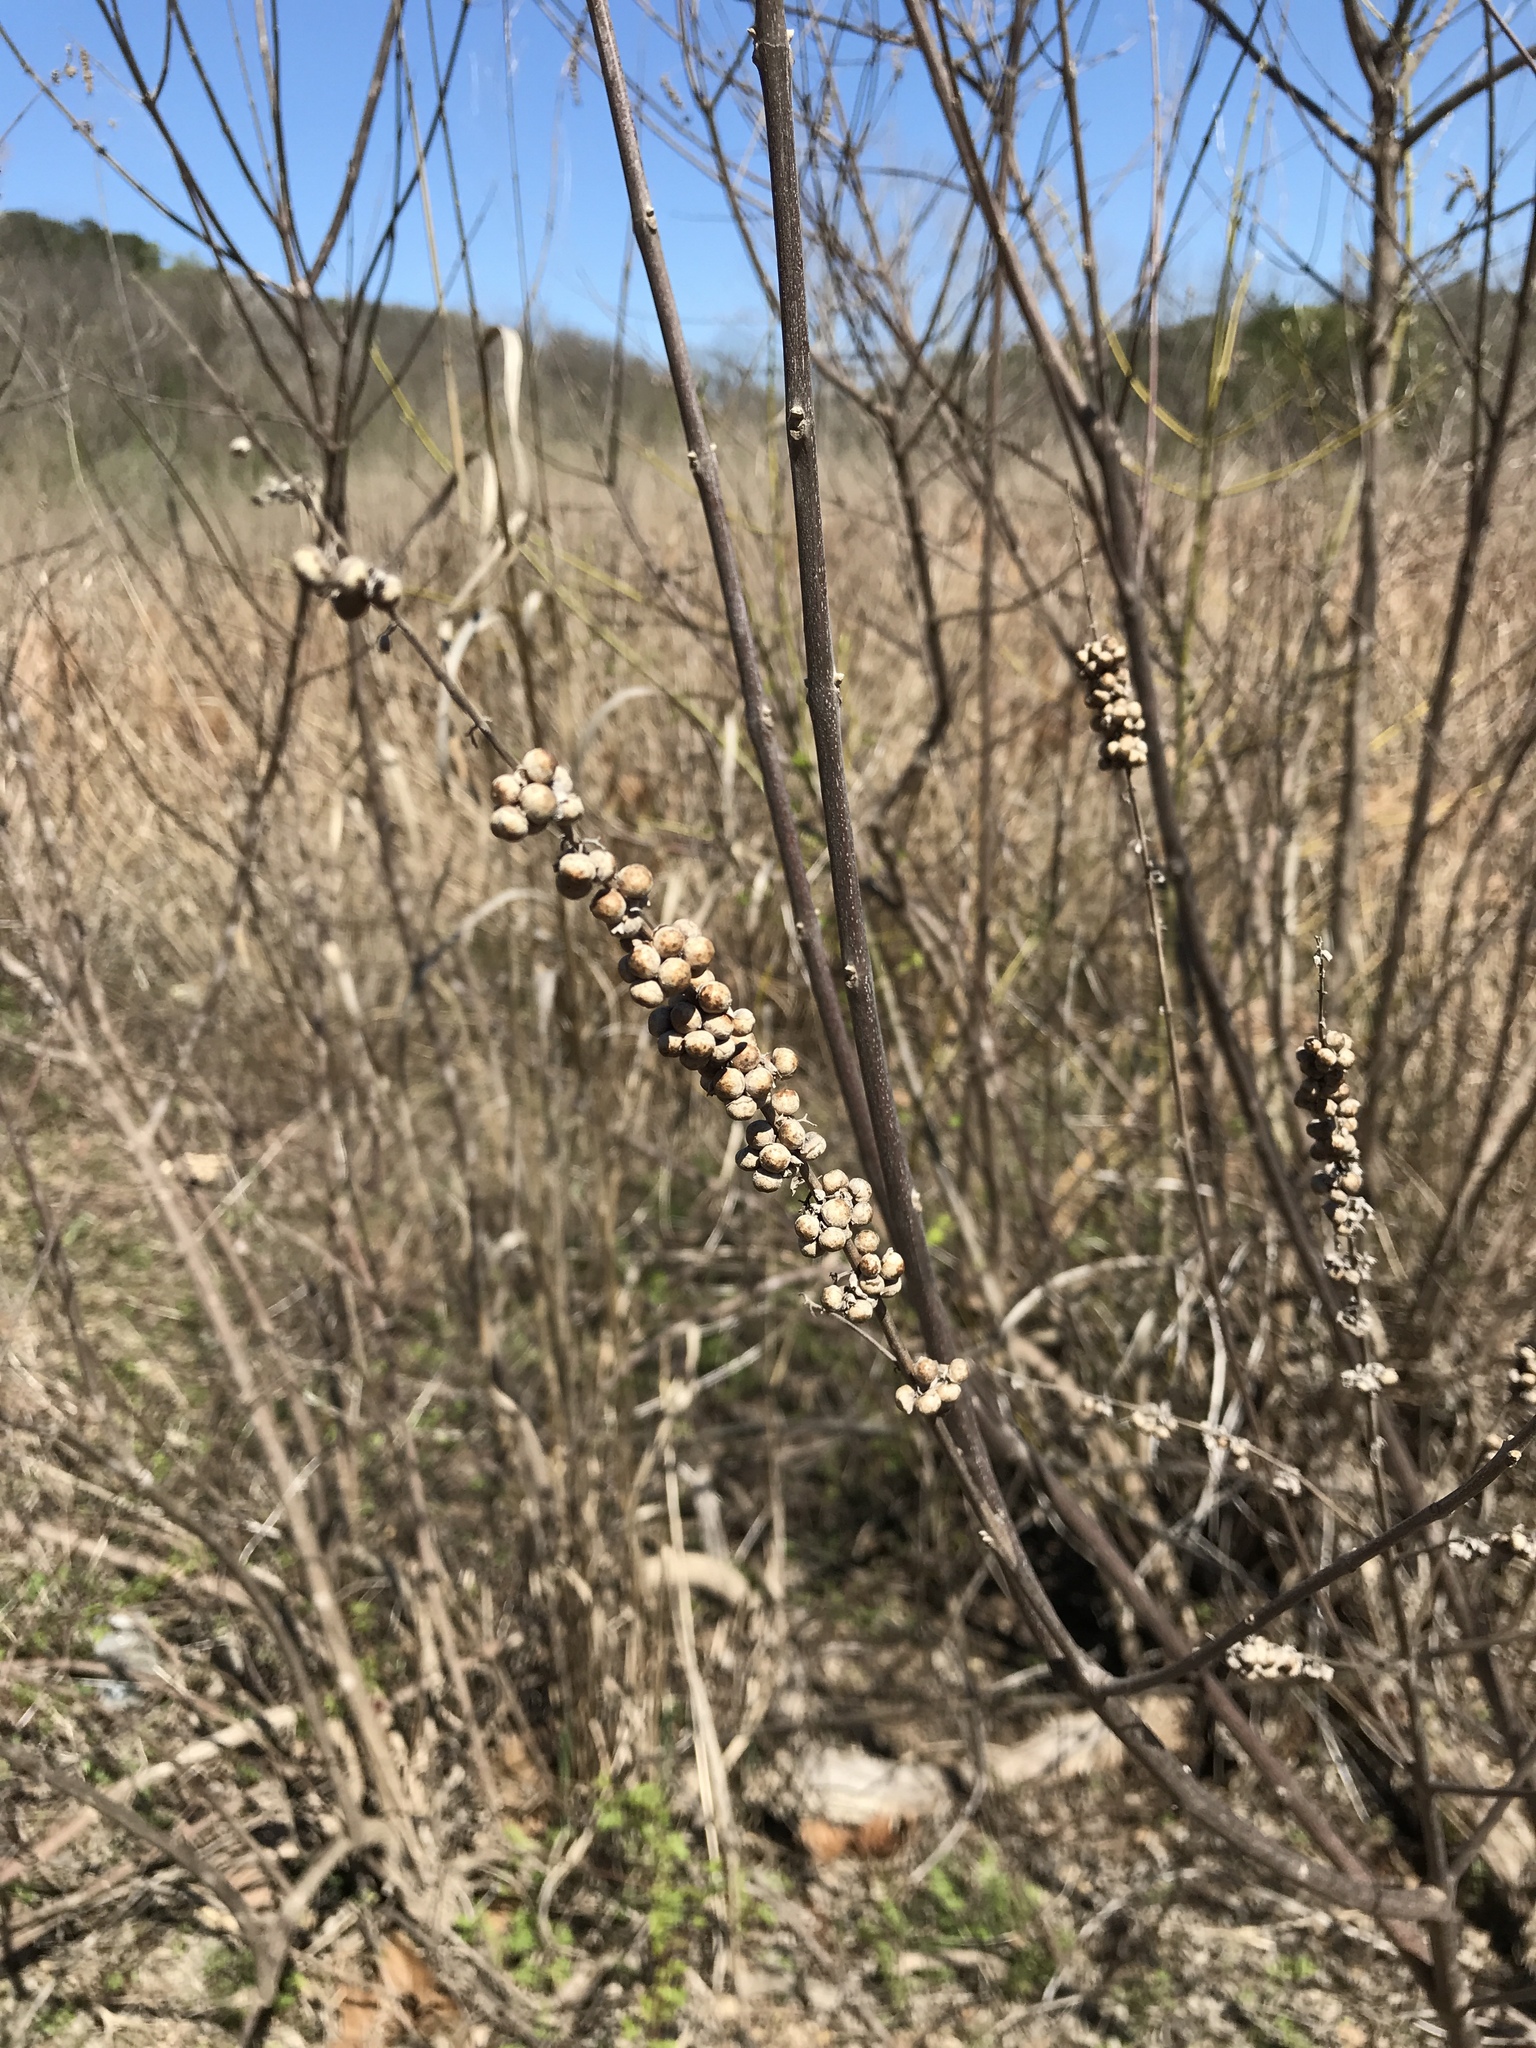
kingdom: Plantae
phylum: Tracheophyta
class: Magnoliopsida
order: Lamiales
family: Lamiaceae
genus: Vitex
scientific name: Vitex agnus-castus
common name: Chasteberry
